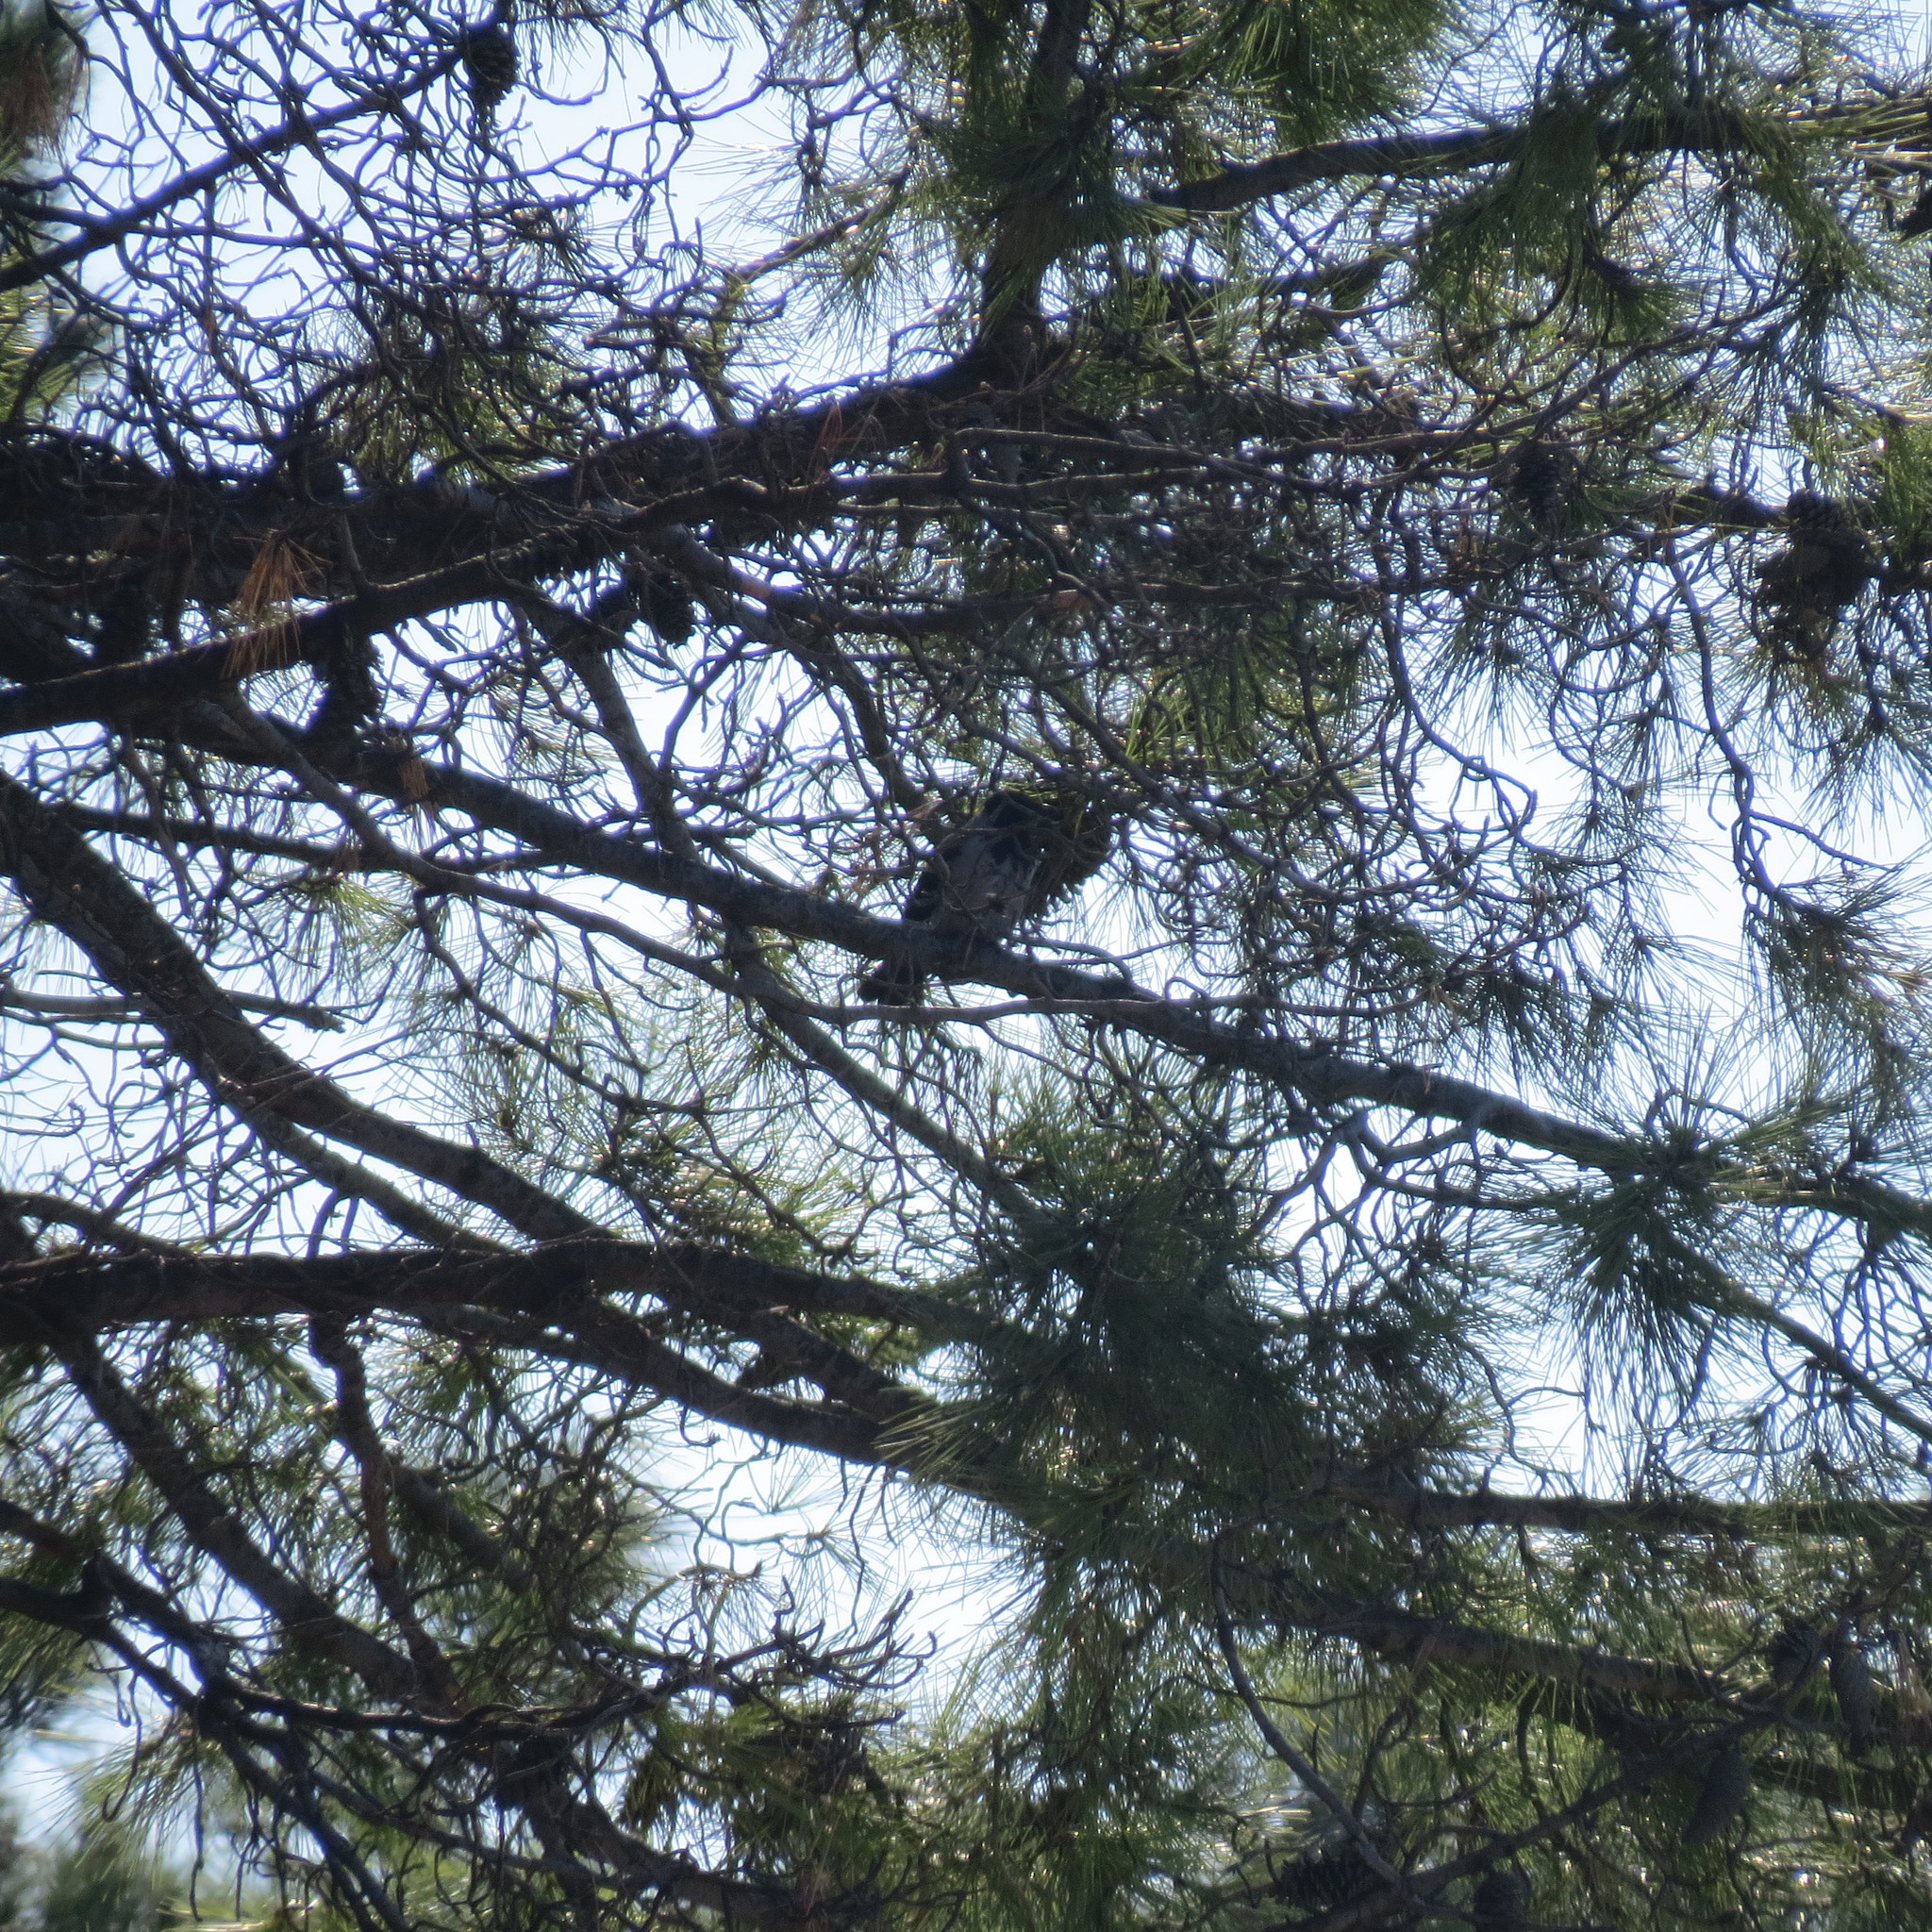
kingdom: Animalia
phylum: Chordata
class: Aves
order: Passeriformes
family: Corvidae
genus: Corvus
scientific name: Corvus cornix
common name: Hooded crow
